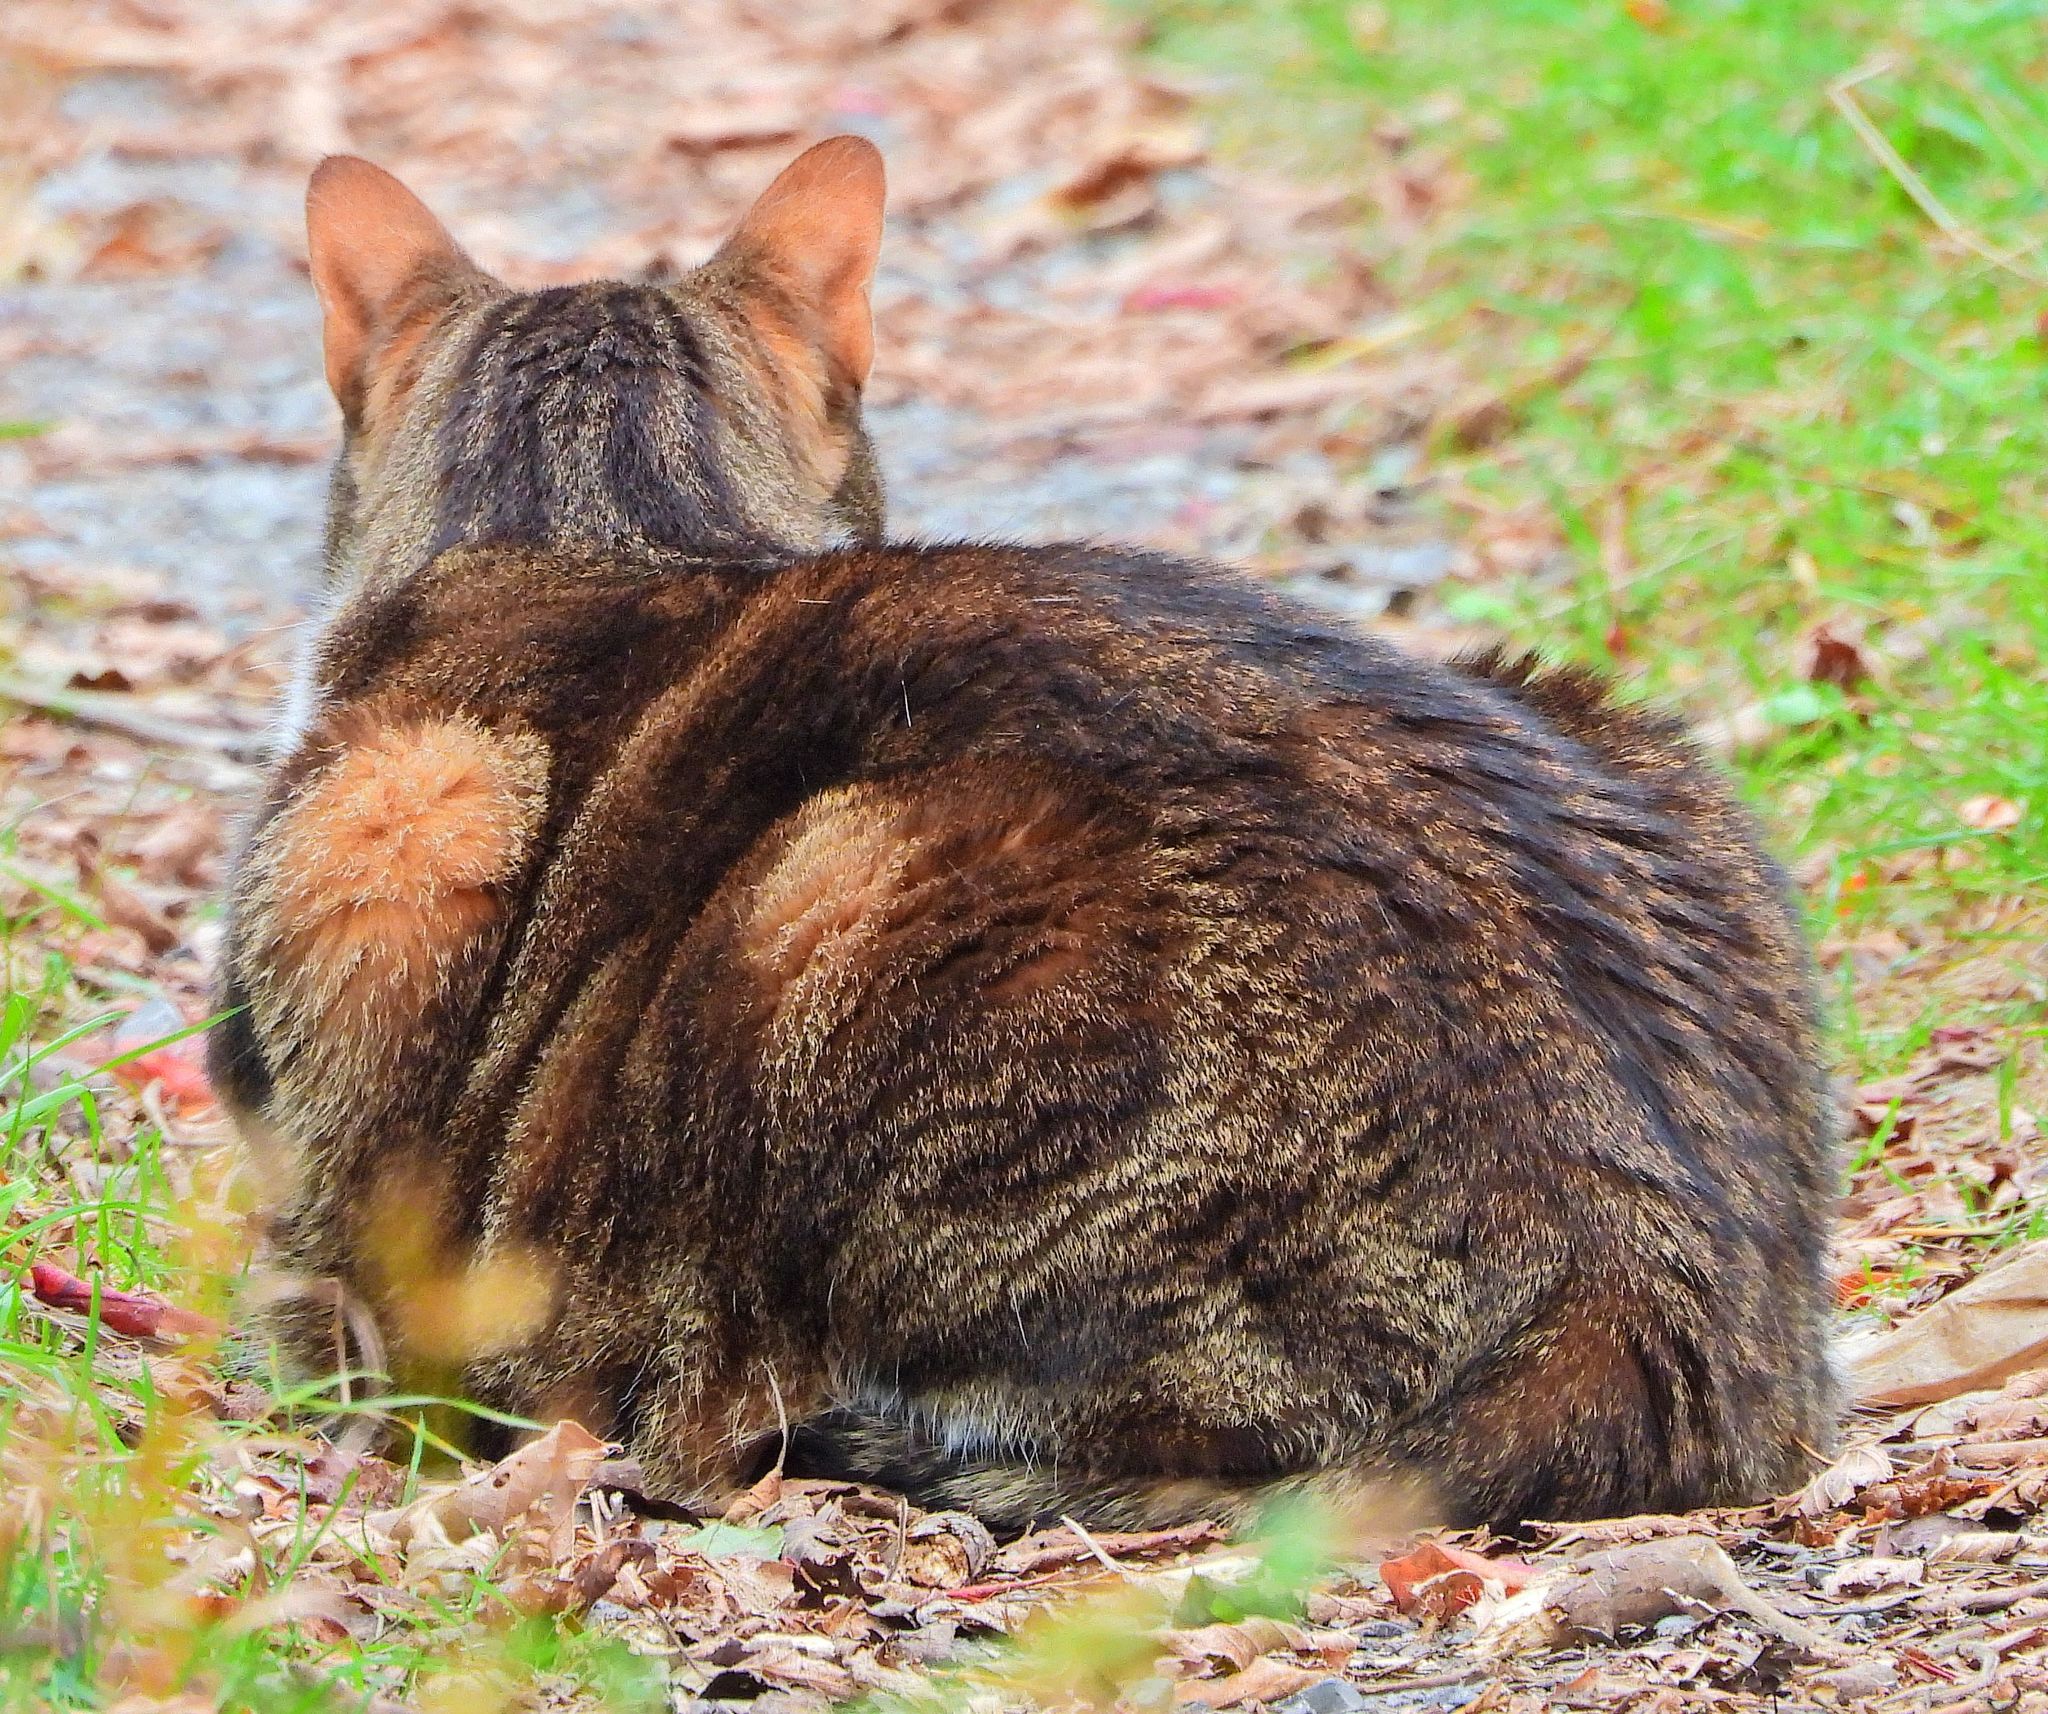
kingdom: Animalia
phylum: Chordata
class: Mammalia
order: Carnivora
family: Felidae
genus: Felis
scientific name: Felis catus
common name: Domestic cat
